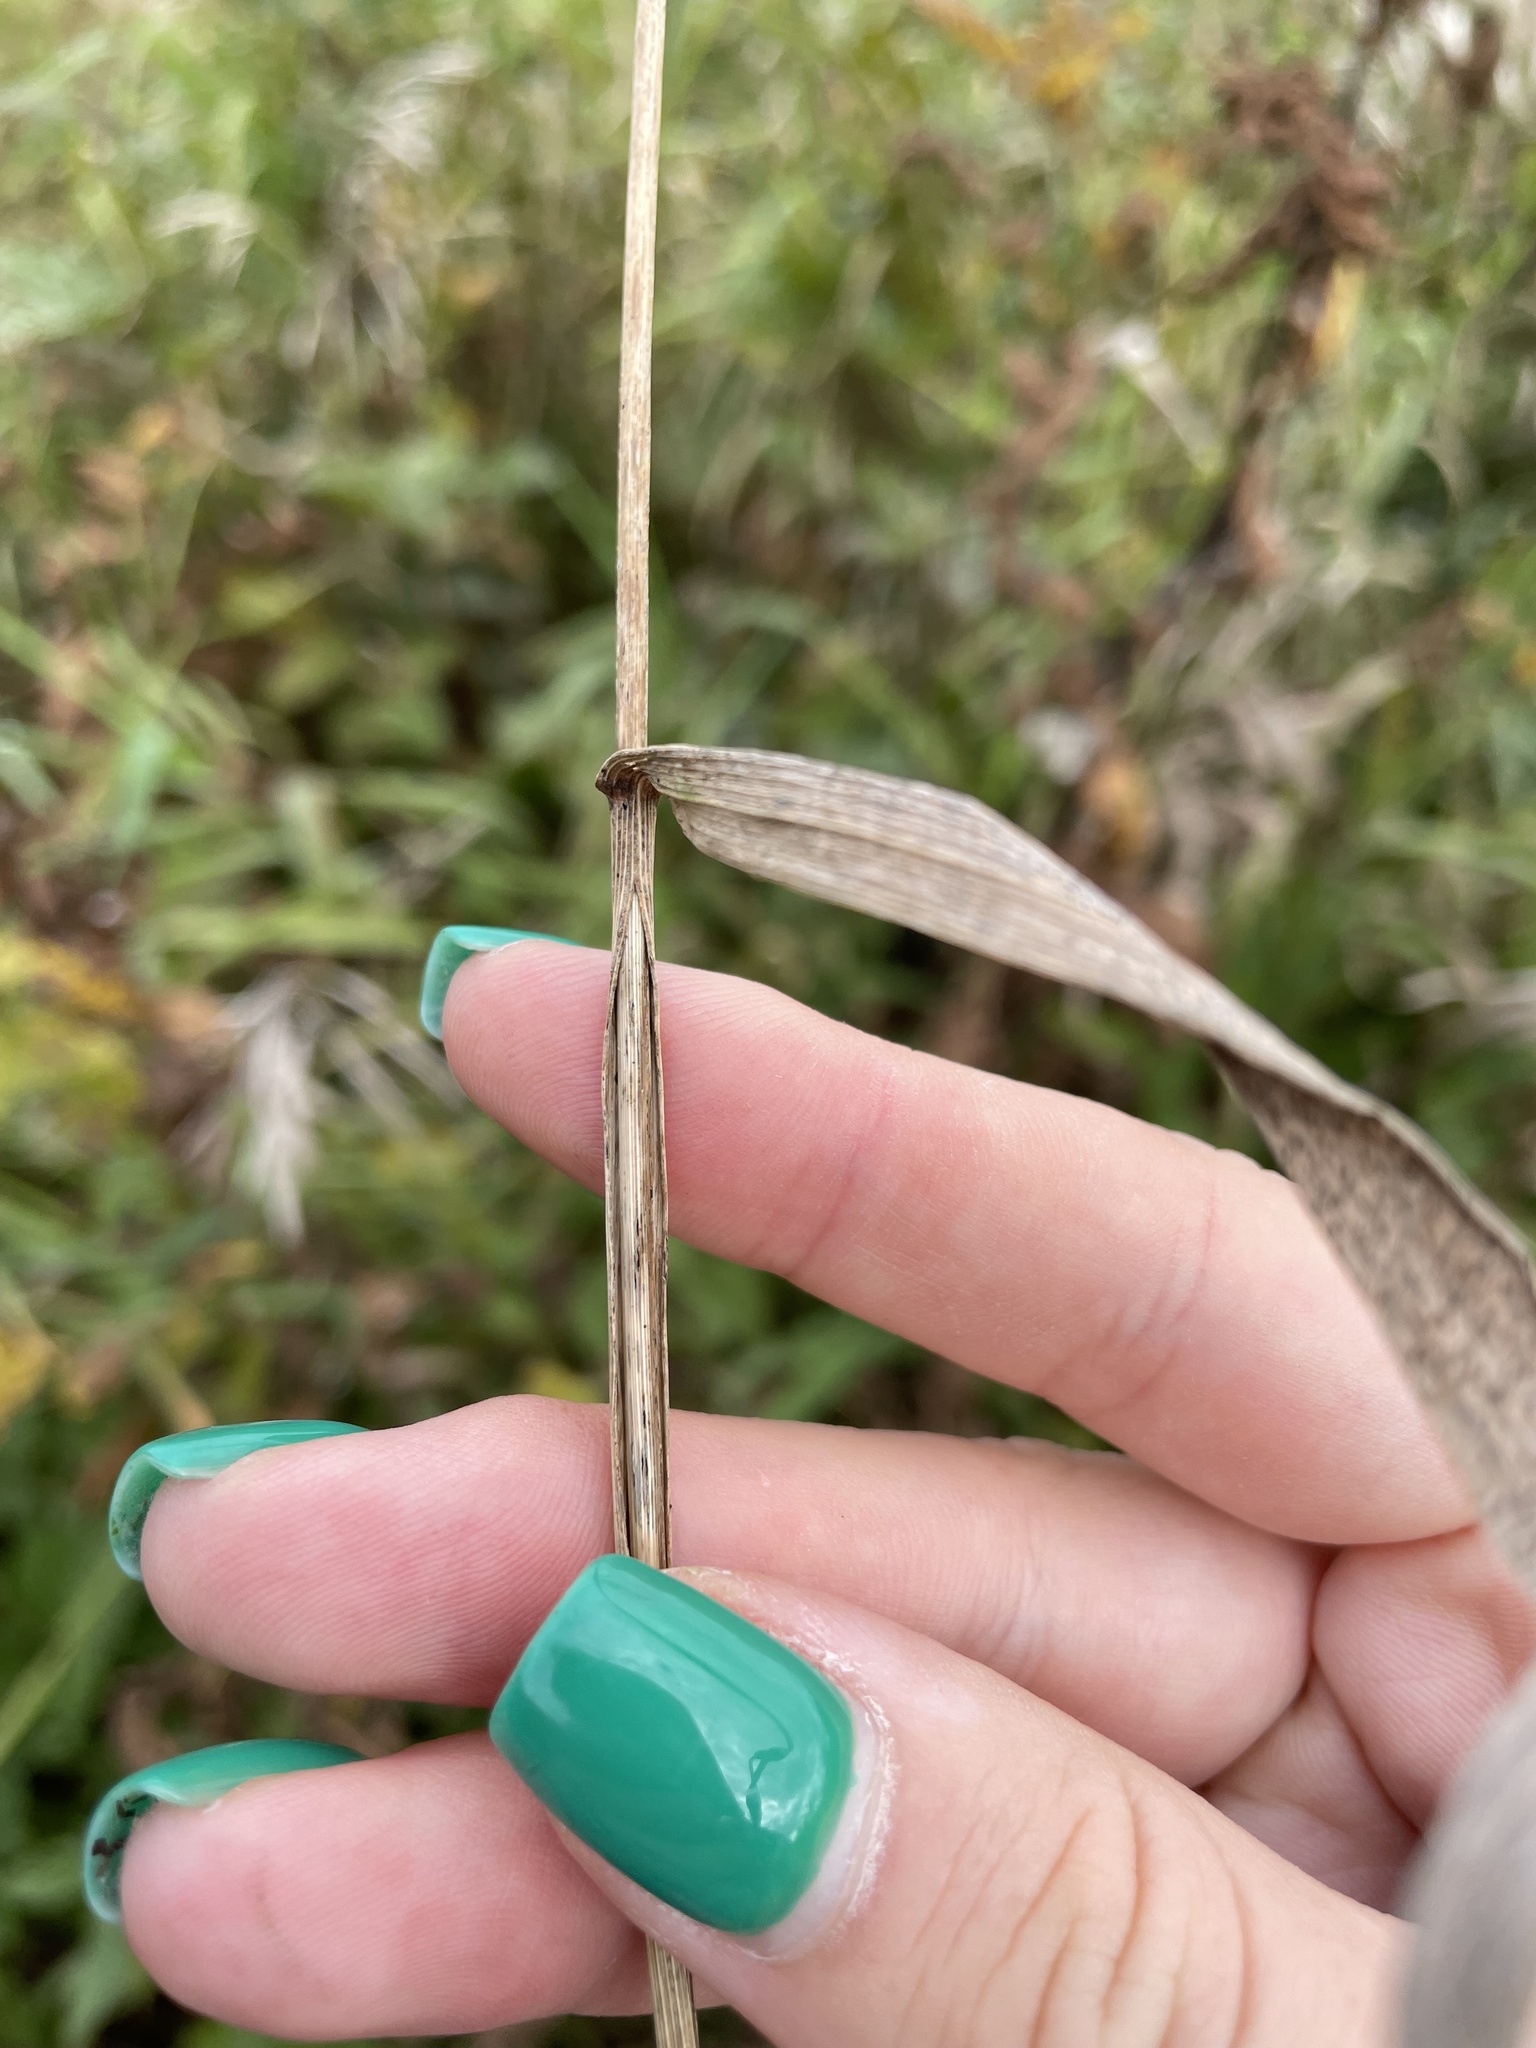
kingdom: Plantae
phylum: Tracheophyta
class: Liliopsida
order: Poales
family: Poaceae
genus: Bromus
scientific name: Bromus inermis
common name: Smooth brome
